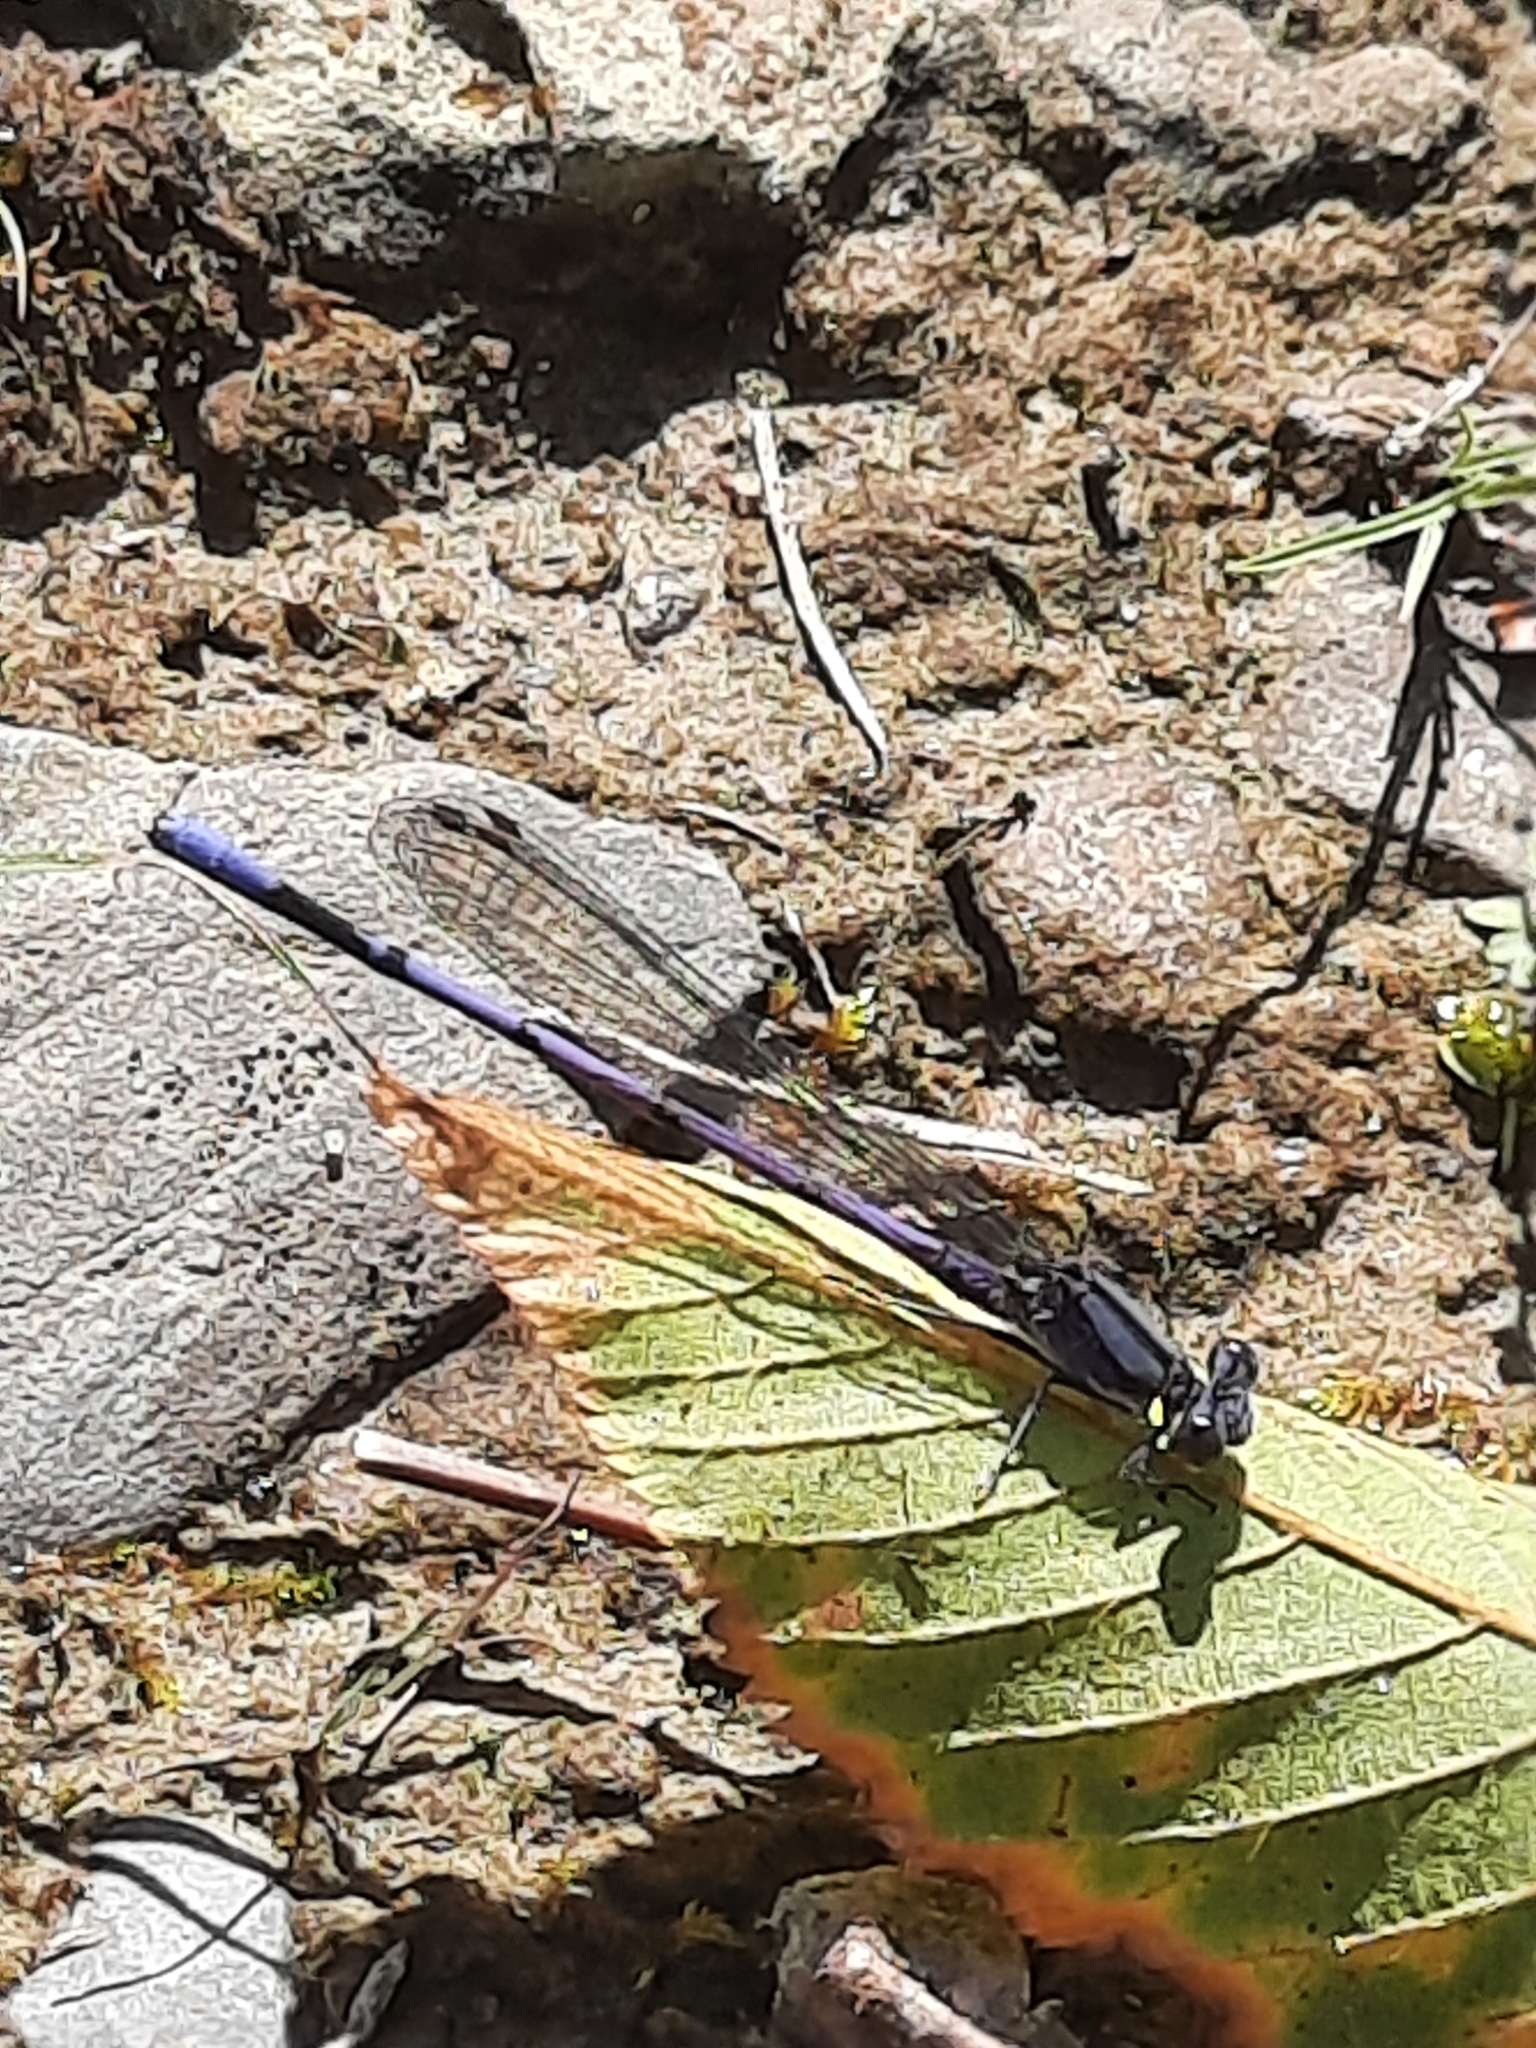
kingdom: Animalia
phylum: Arthropoda
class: Insecta
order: Odonata
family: Coenagrionidae
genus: Argia
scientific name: Argia fumipennis
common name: Variable dancer
